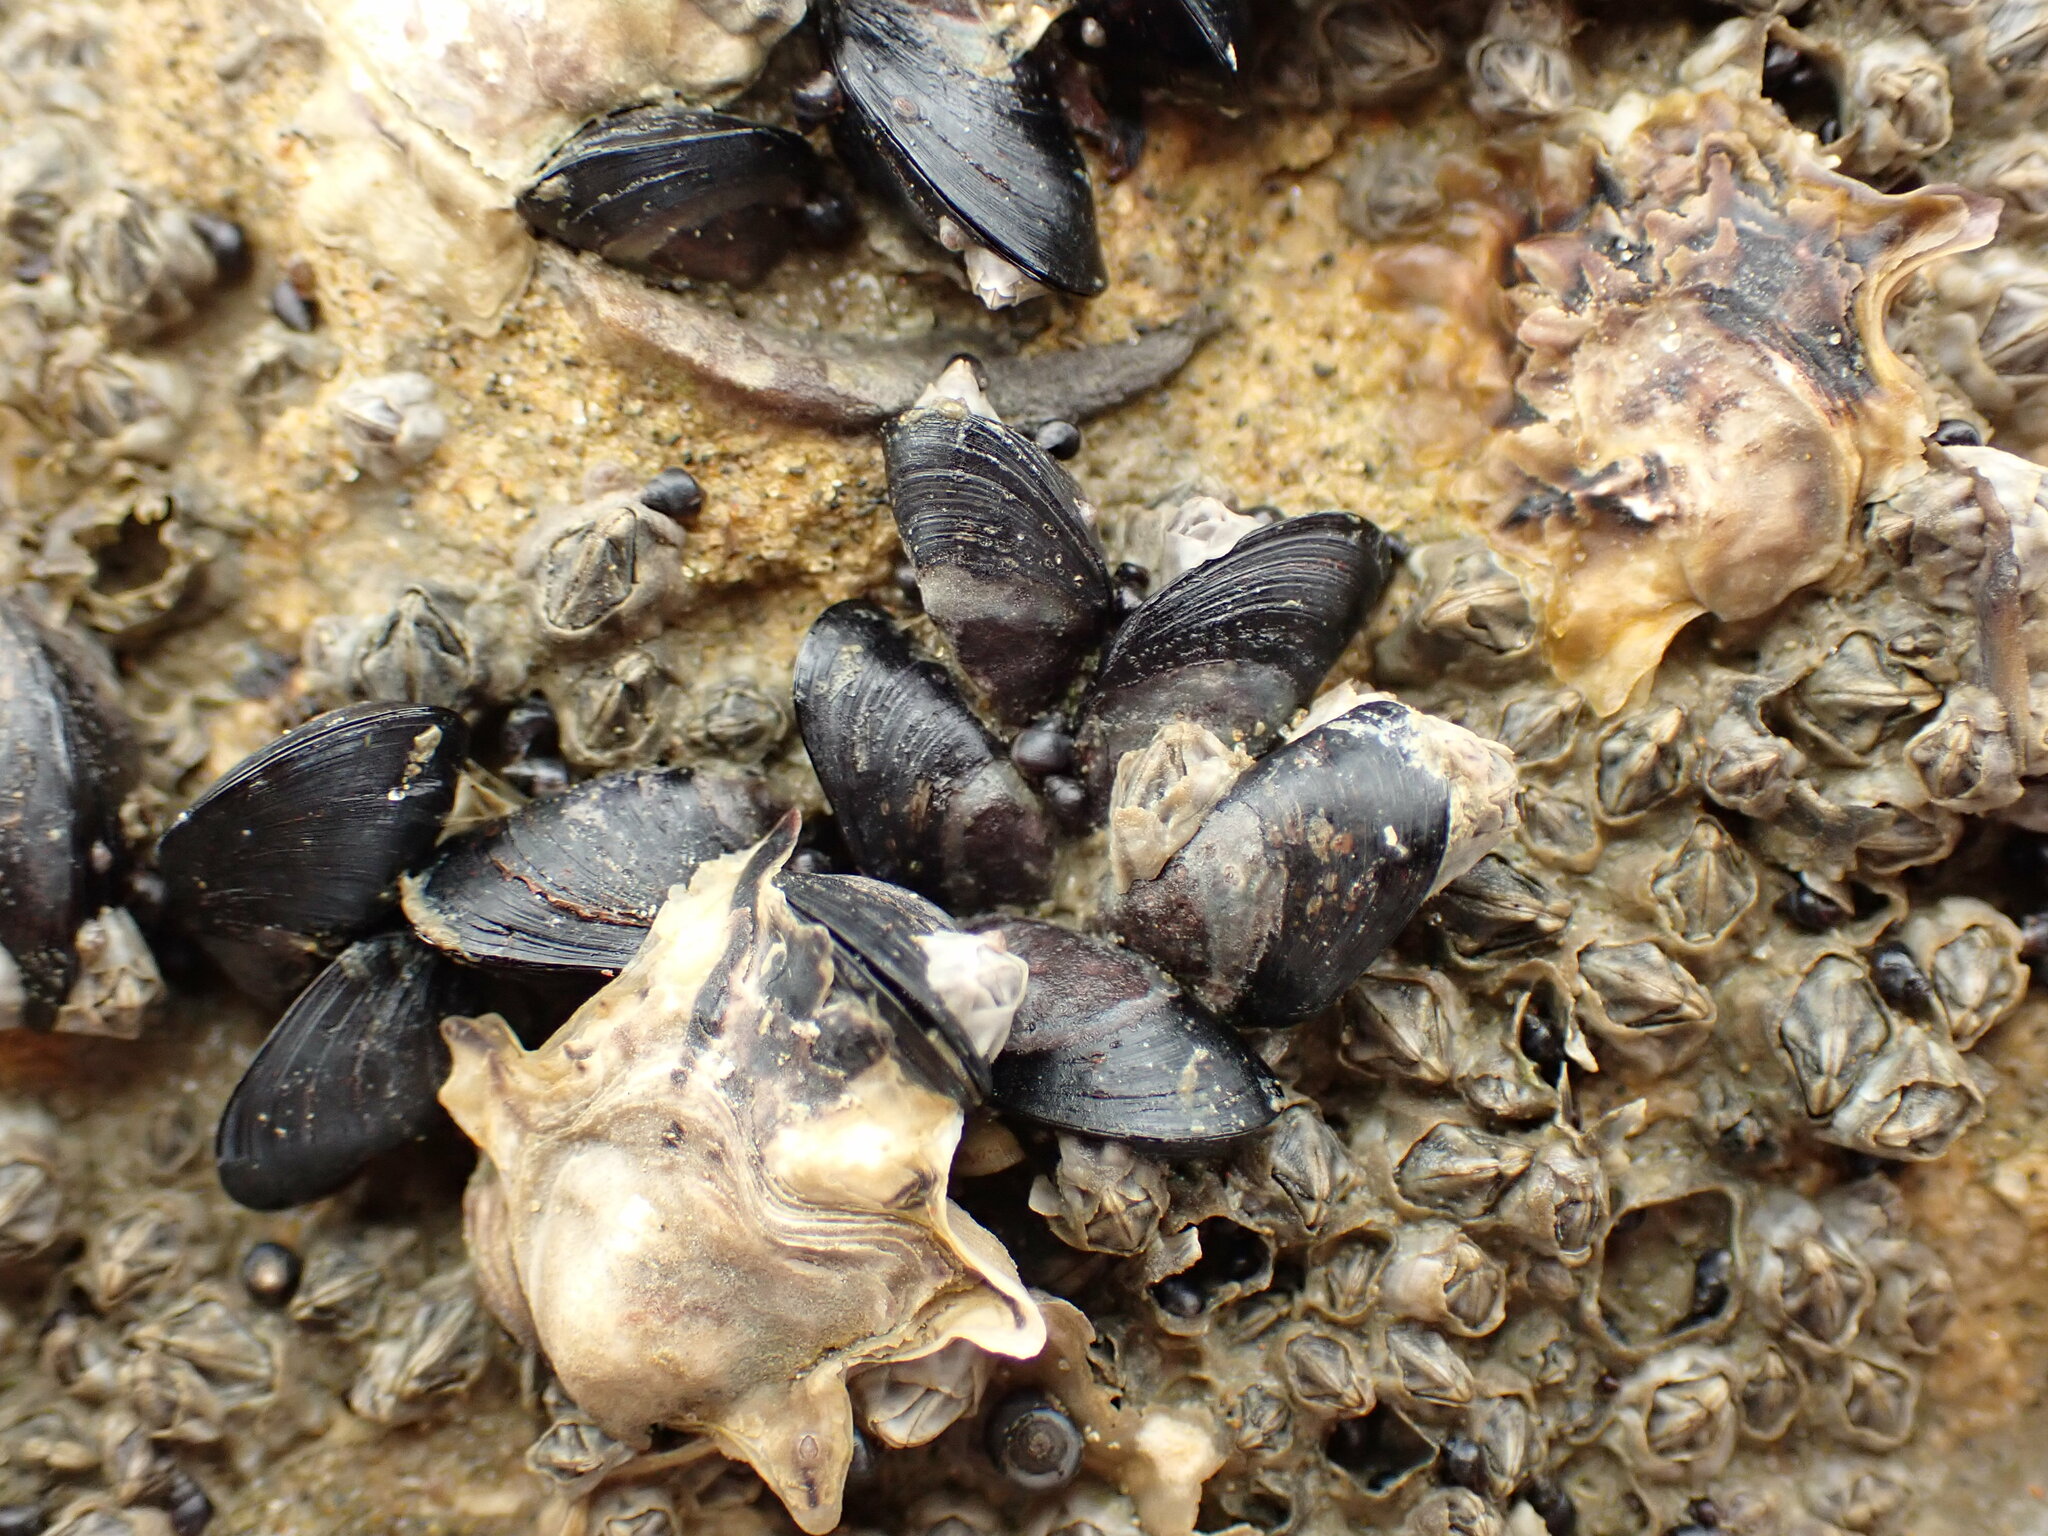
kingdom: Animalia
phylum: Mollusca
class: Bivalvia
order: Mytilida
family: Mytilidae
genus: Xenostrobus
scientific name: Xenostrobus neozelanicus
